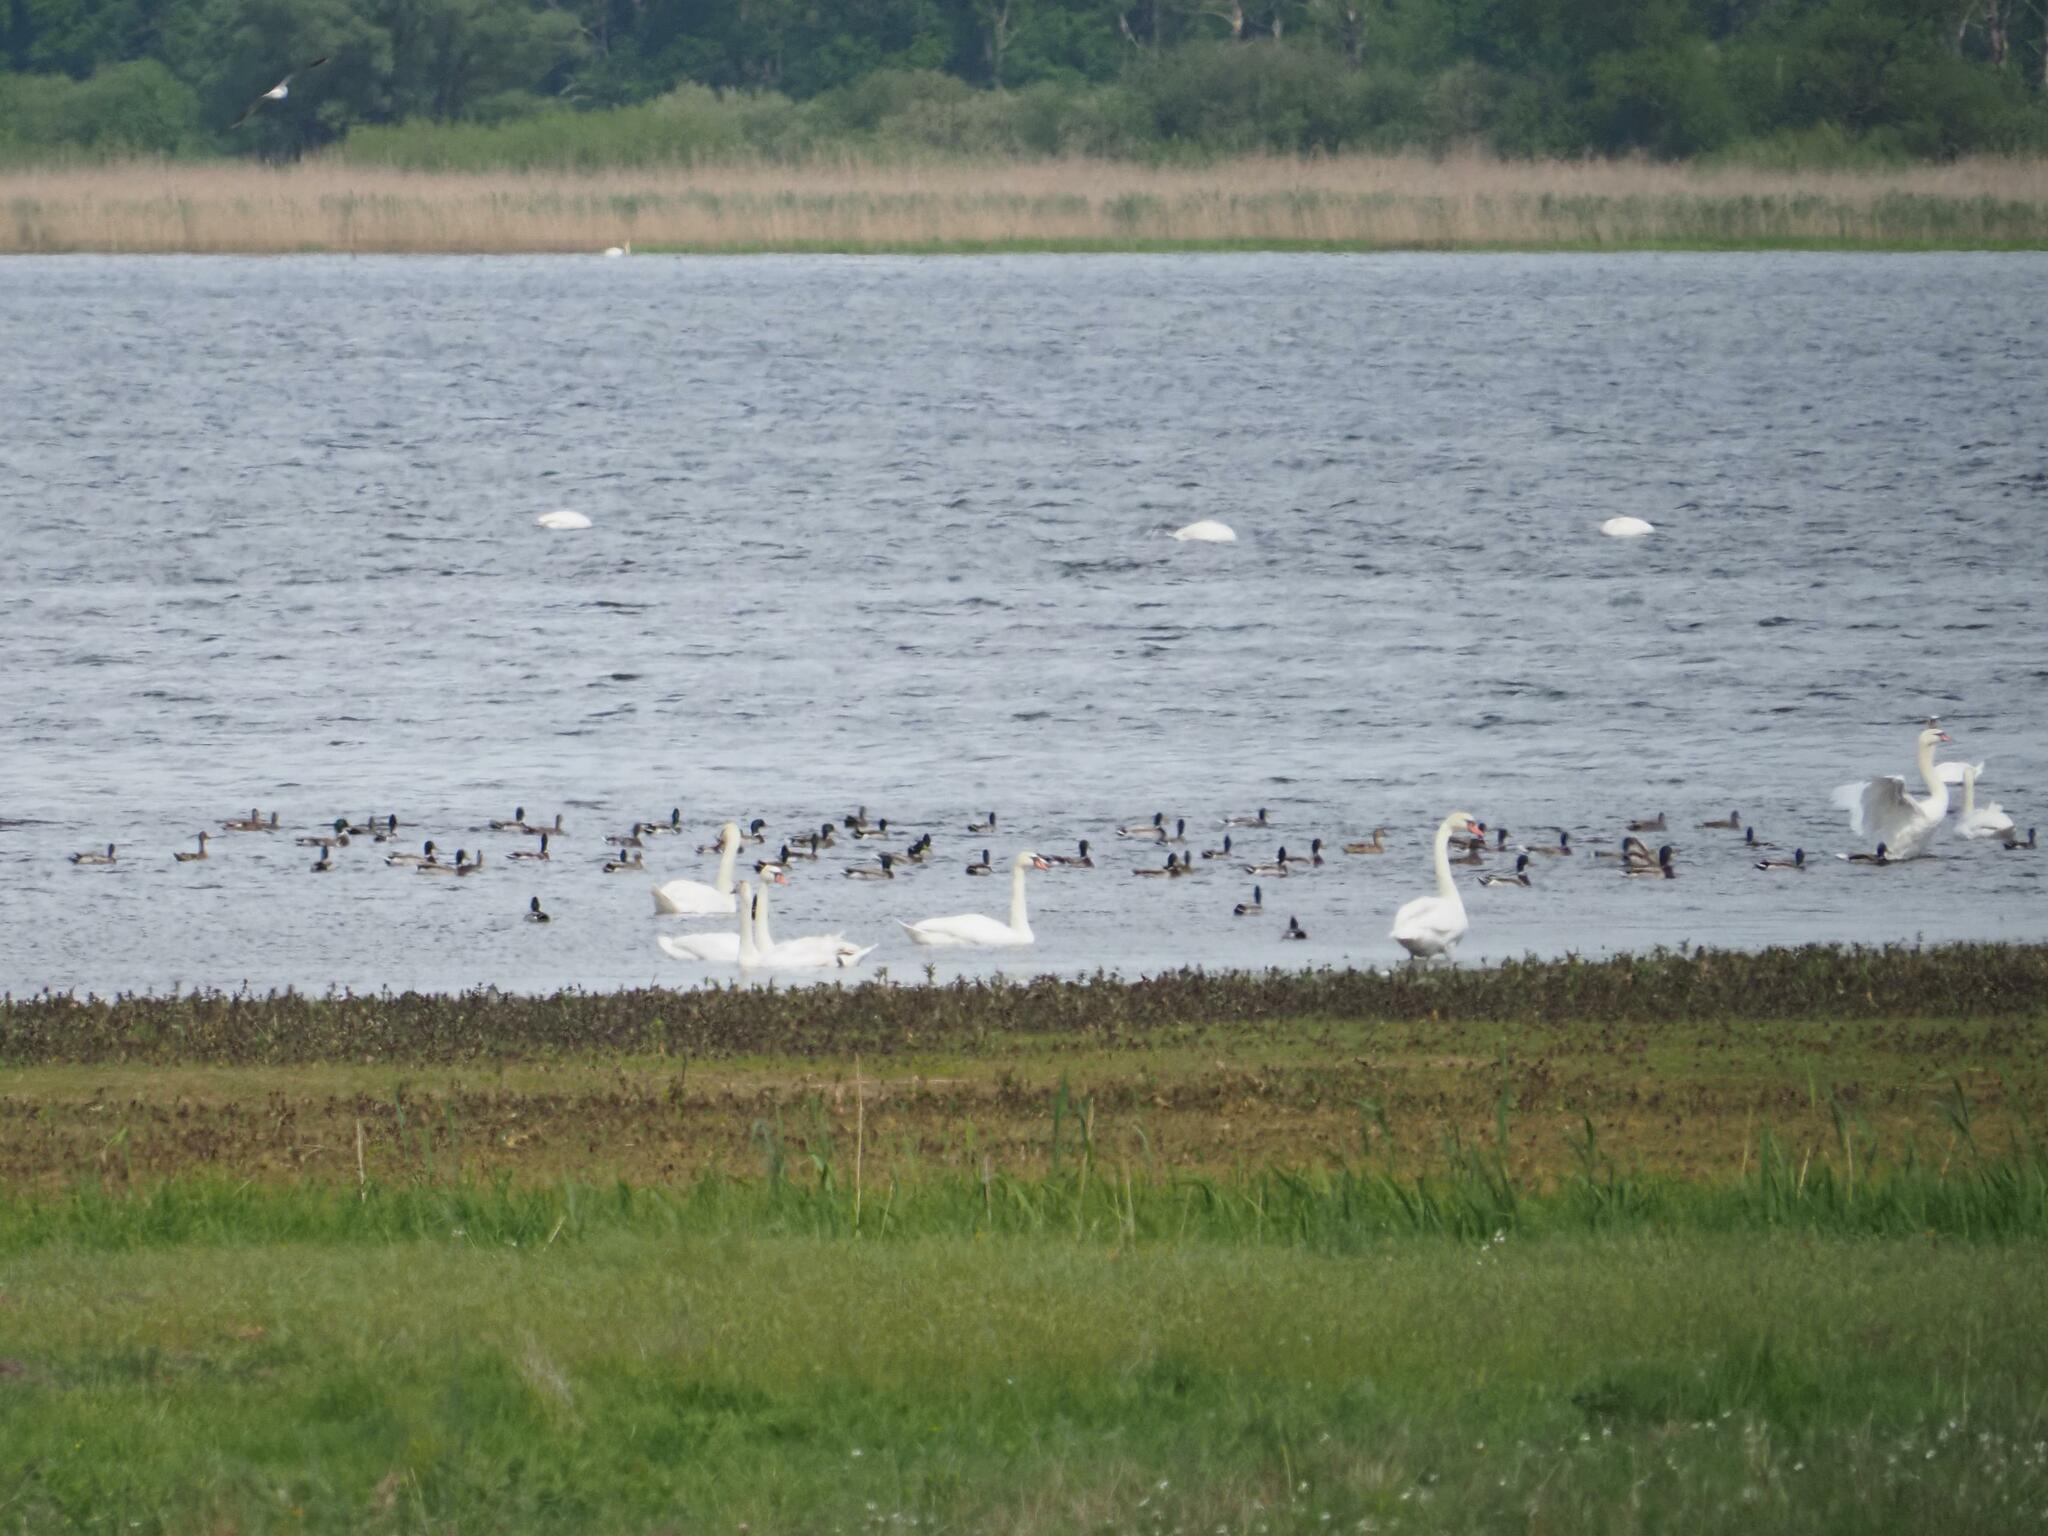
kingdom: Animalia
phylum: Chordata
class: Aves
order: Anseriformes
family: Anatidae
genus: Anas
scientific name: Anas platyrhynchos
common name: Mallard
